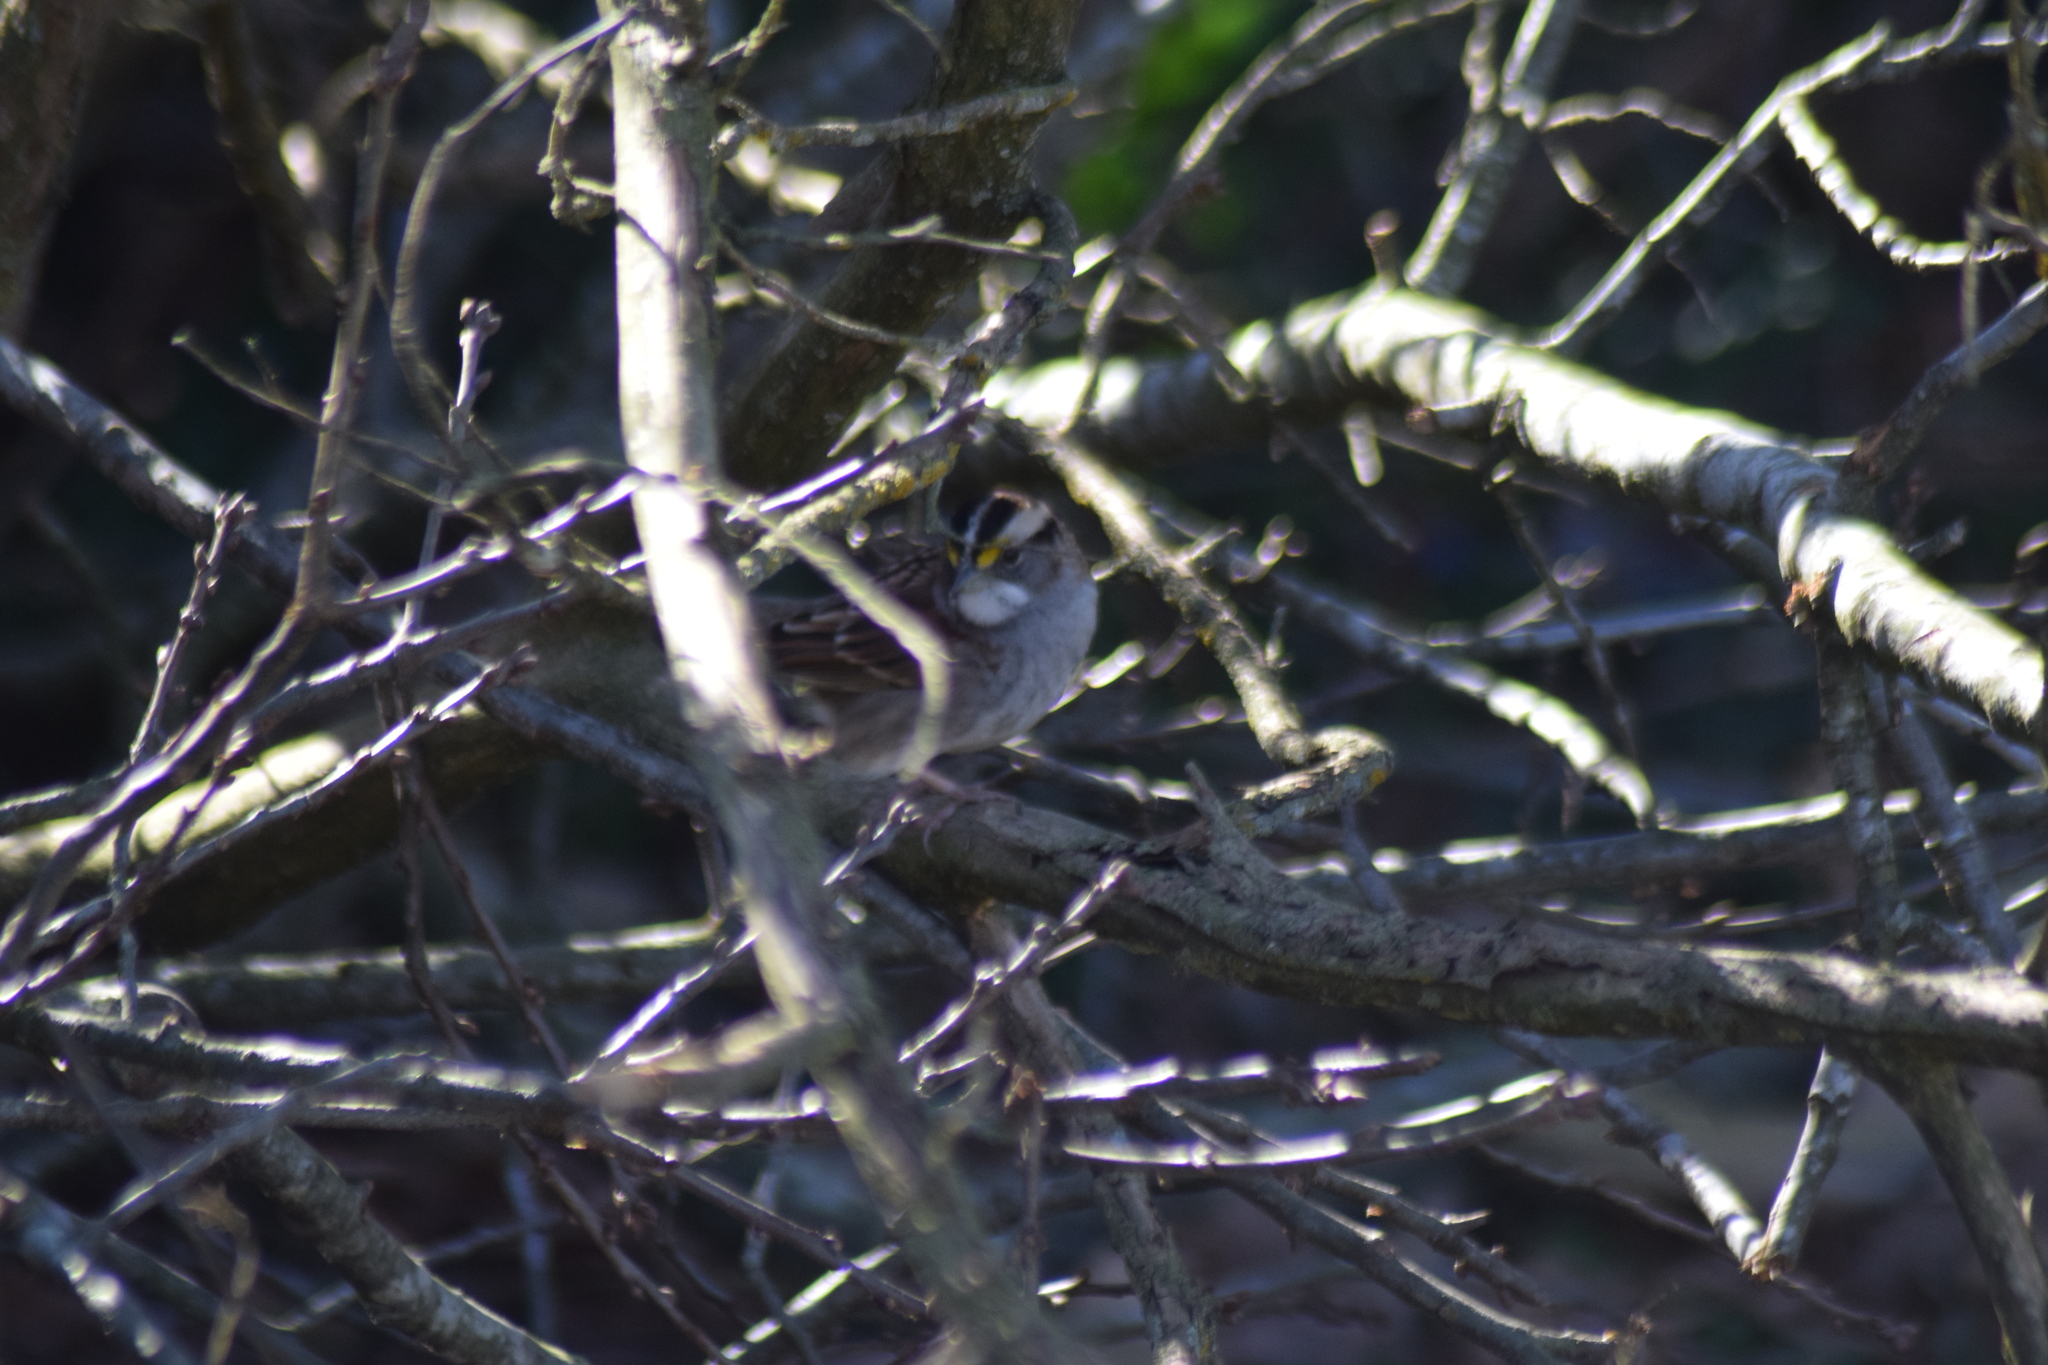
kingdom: Animalia
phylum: Chordata
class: Aves
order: Passeriformes
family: Passerellidae
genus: Zonotrichia
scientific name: Zonotrichia albicollis
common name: White-throated sparrow
